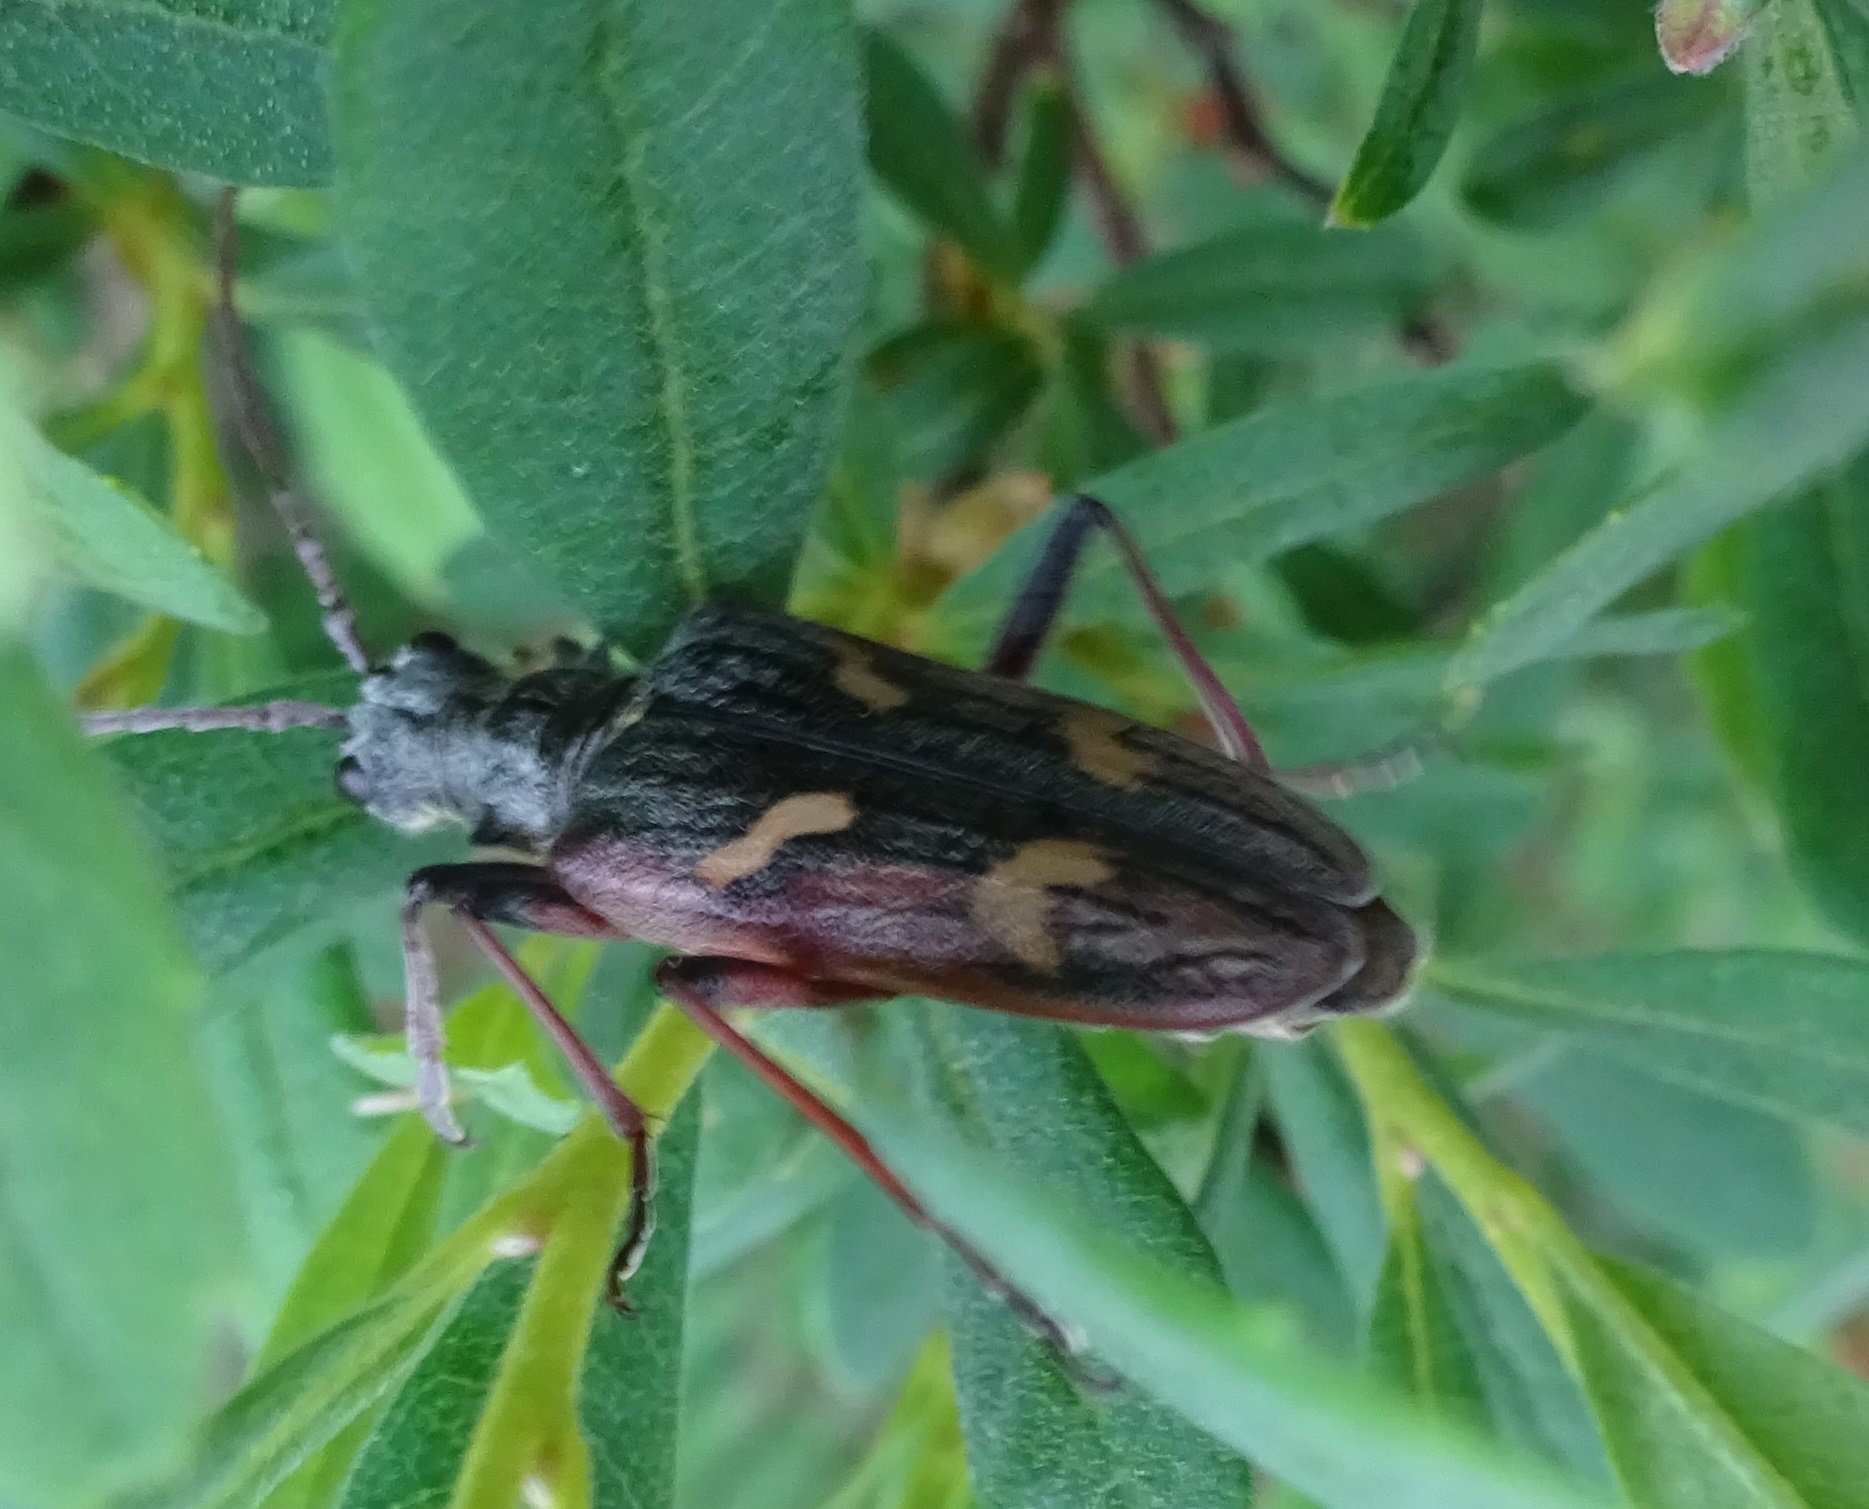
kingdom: Animalia
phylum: Arthropoda
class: Insecta
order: Coleoptera
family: Cerambycidae
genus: Rhagium
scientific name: Rhagium bifasciatum
